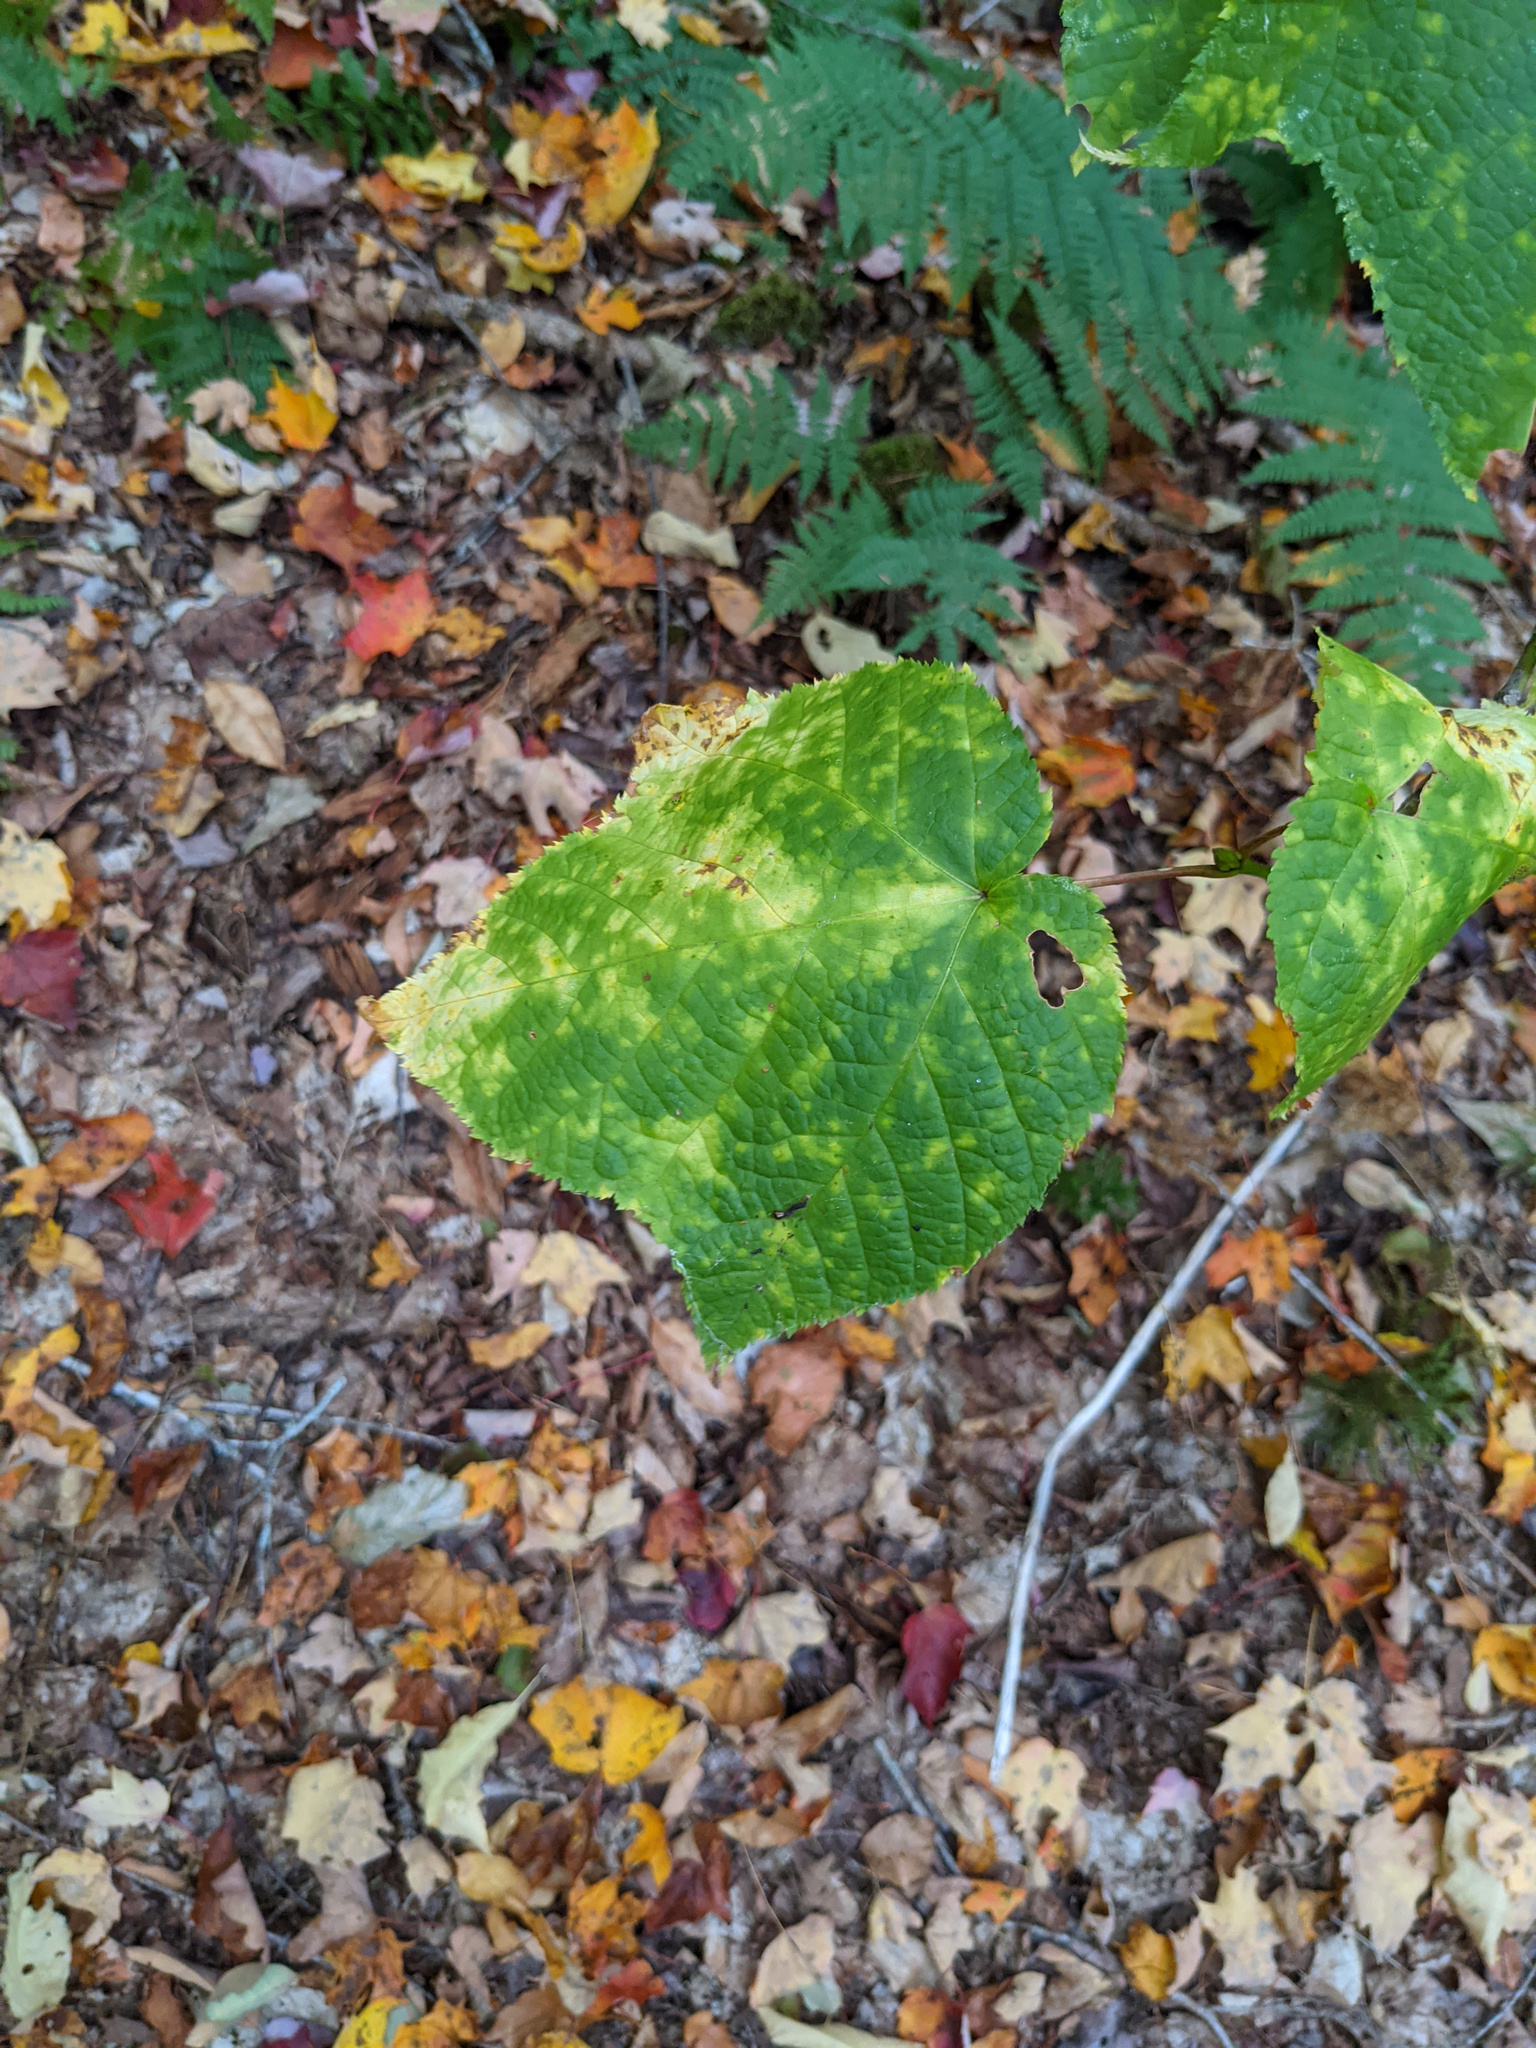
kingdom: Plantae
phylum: Tracheophyta
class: Magnoliopsida
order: Sapindales
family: Sapindaceae
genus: Acer
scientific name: Acer pensylvanicum
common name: Moosewood
